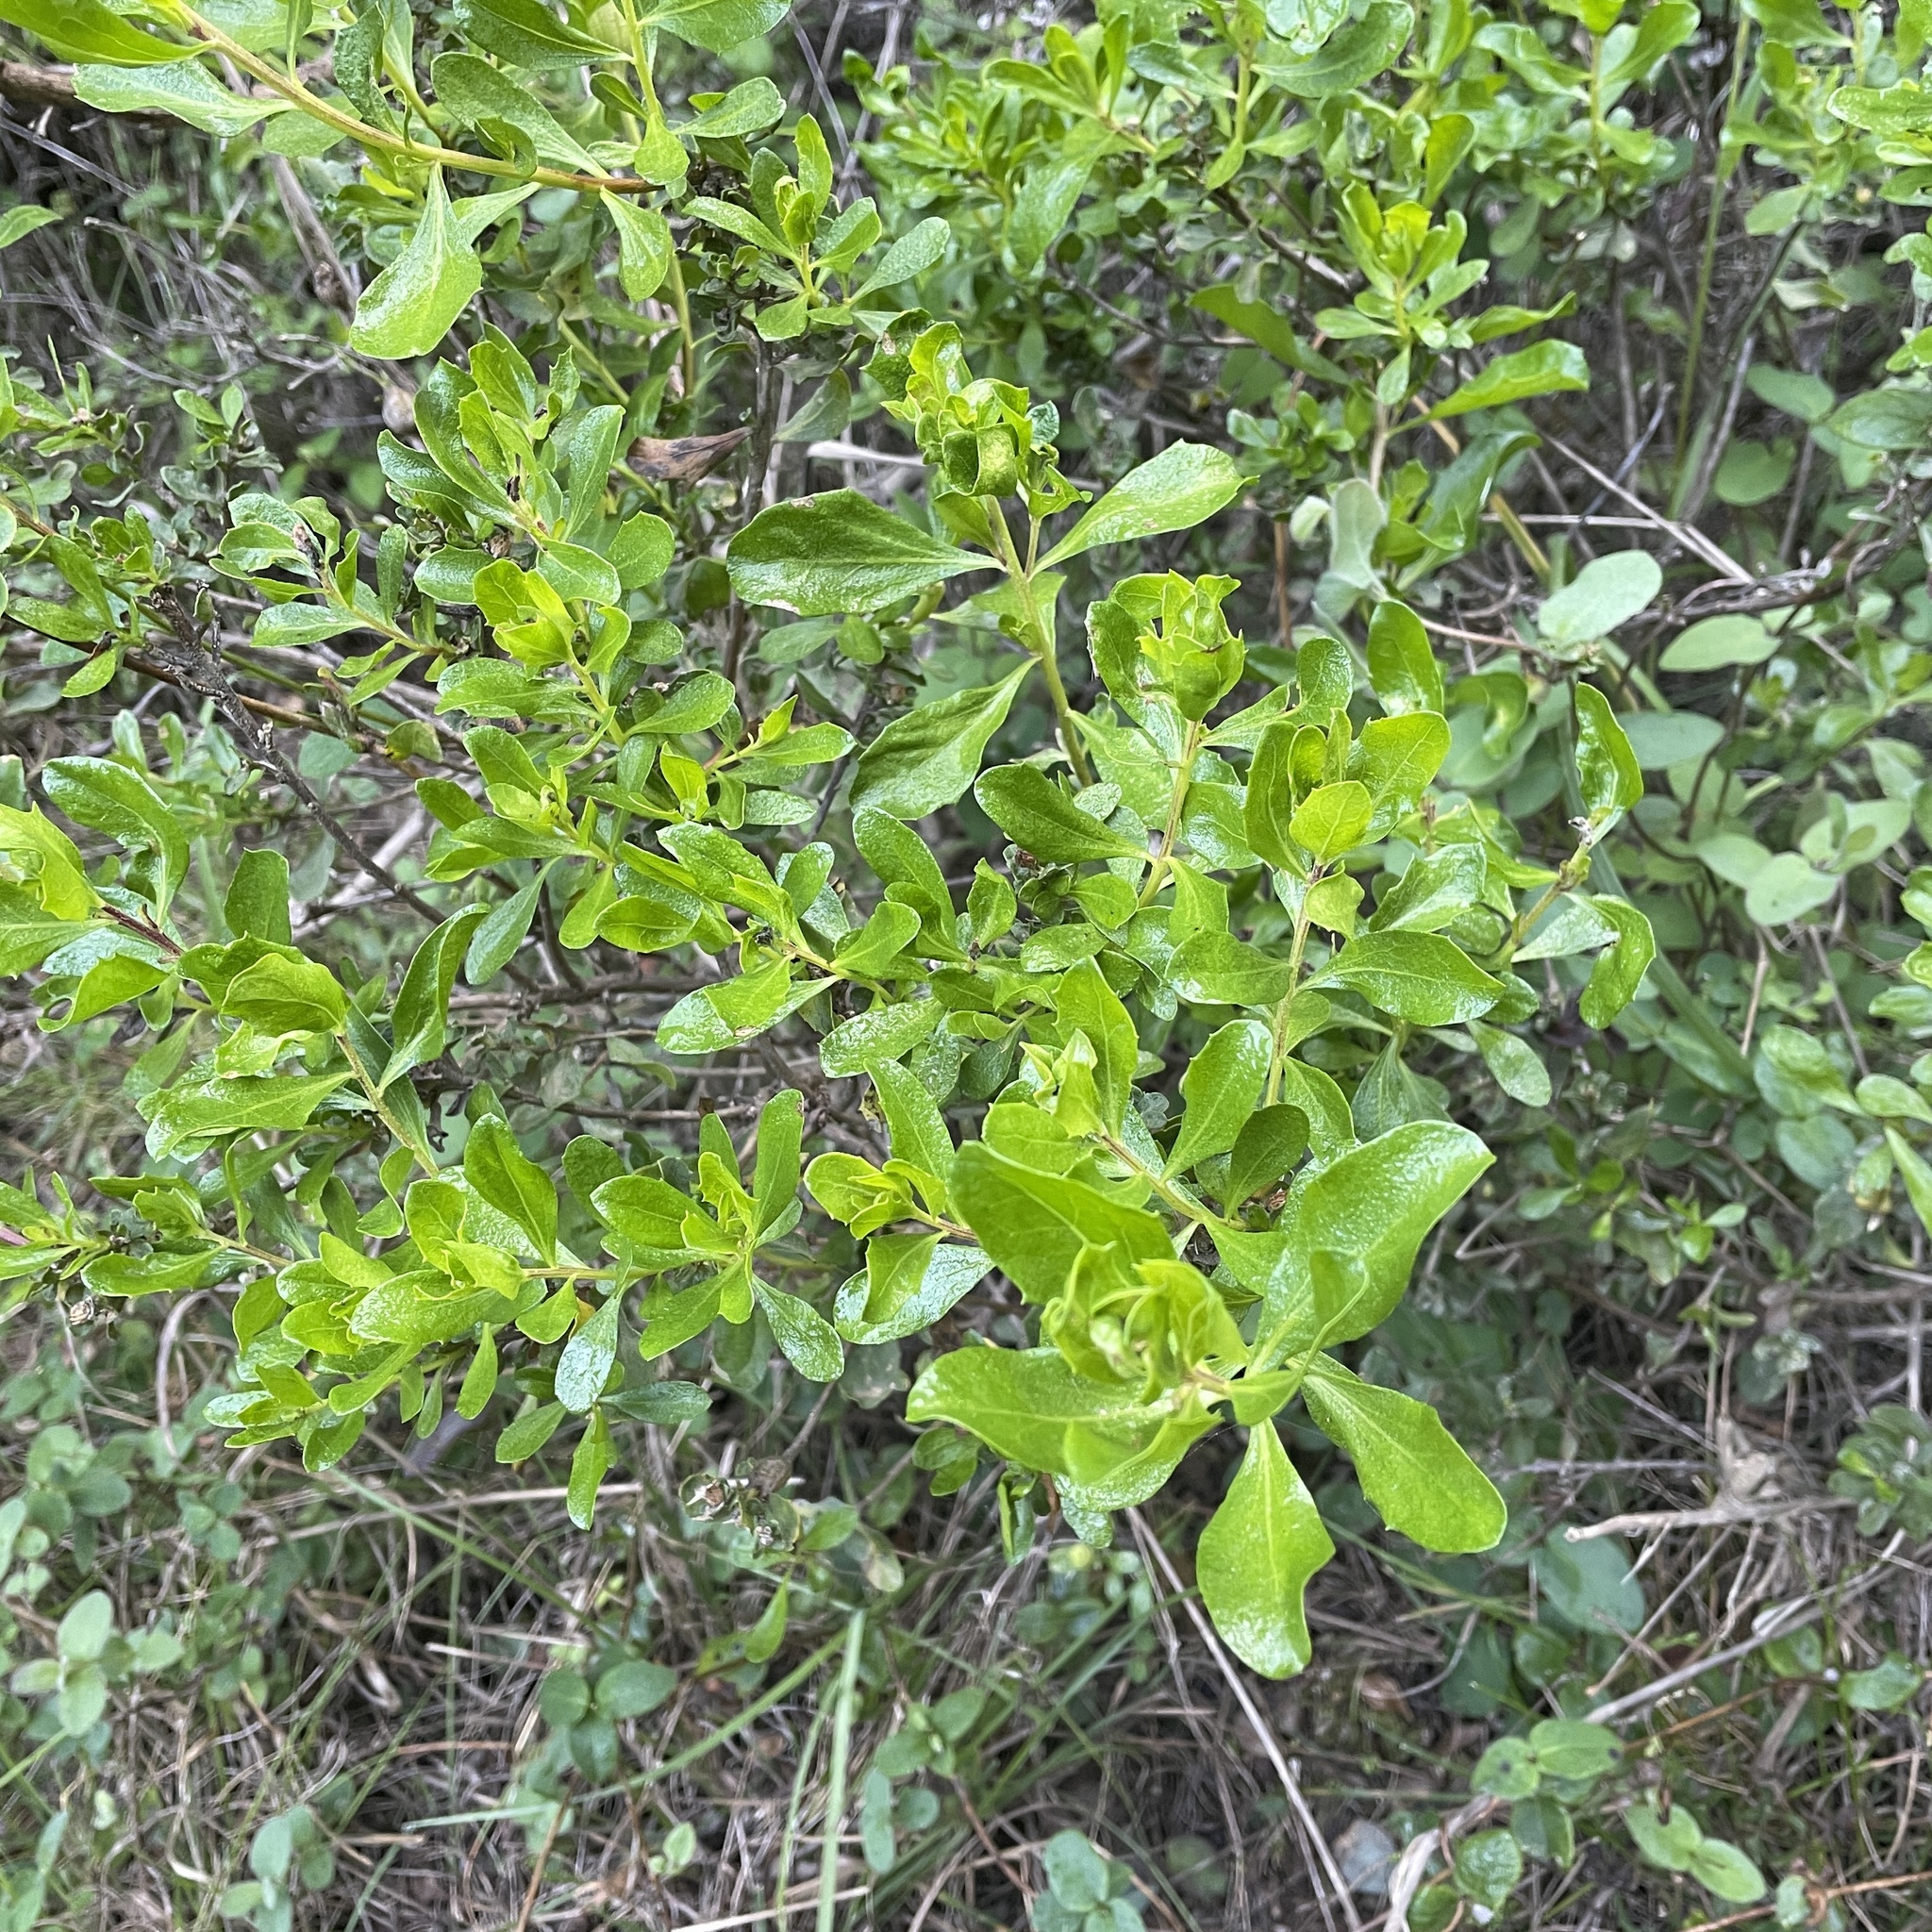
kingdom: Plantae
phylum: Tracheophyta
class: Magnoliopsida
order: Asterales
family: Asteraceae
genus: Baccharis
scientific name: Baccharis pilularis
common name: Coyotebrush
